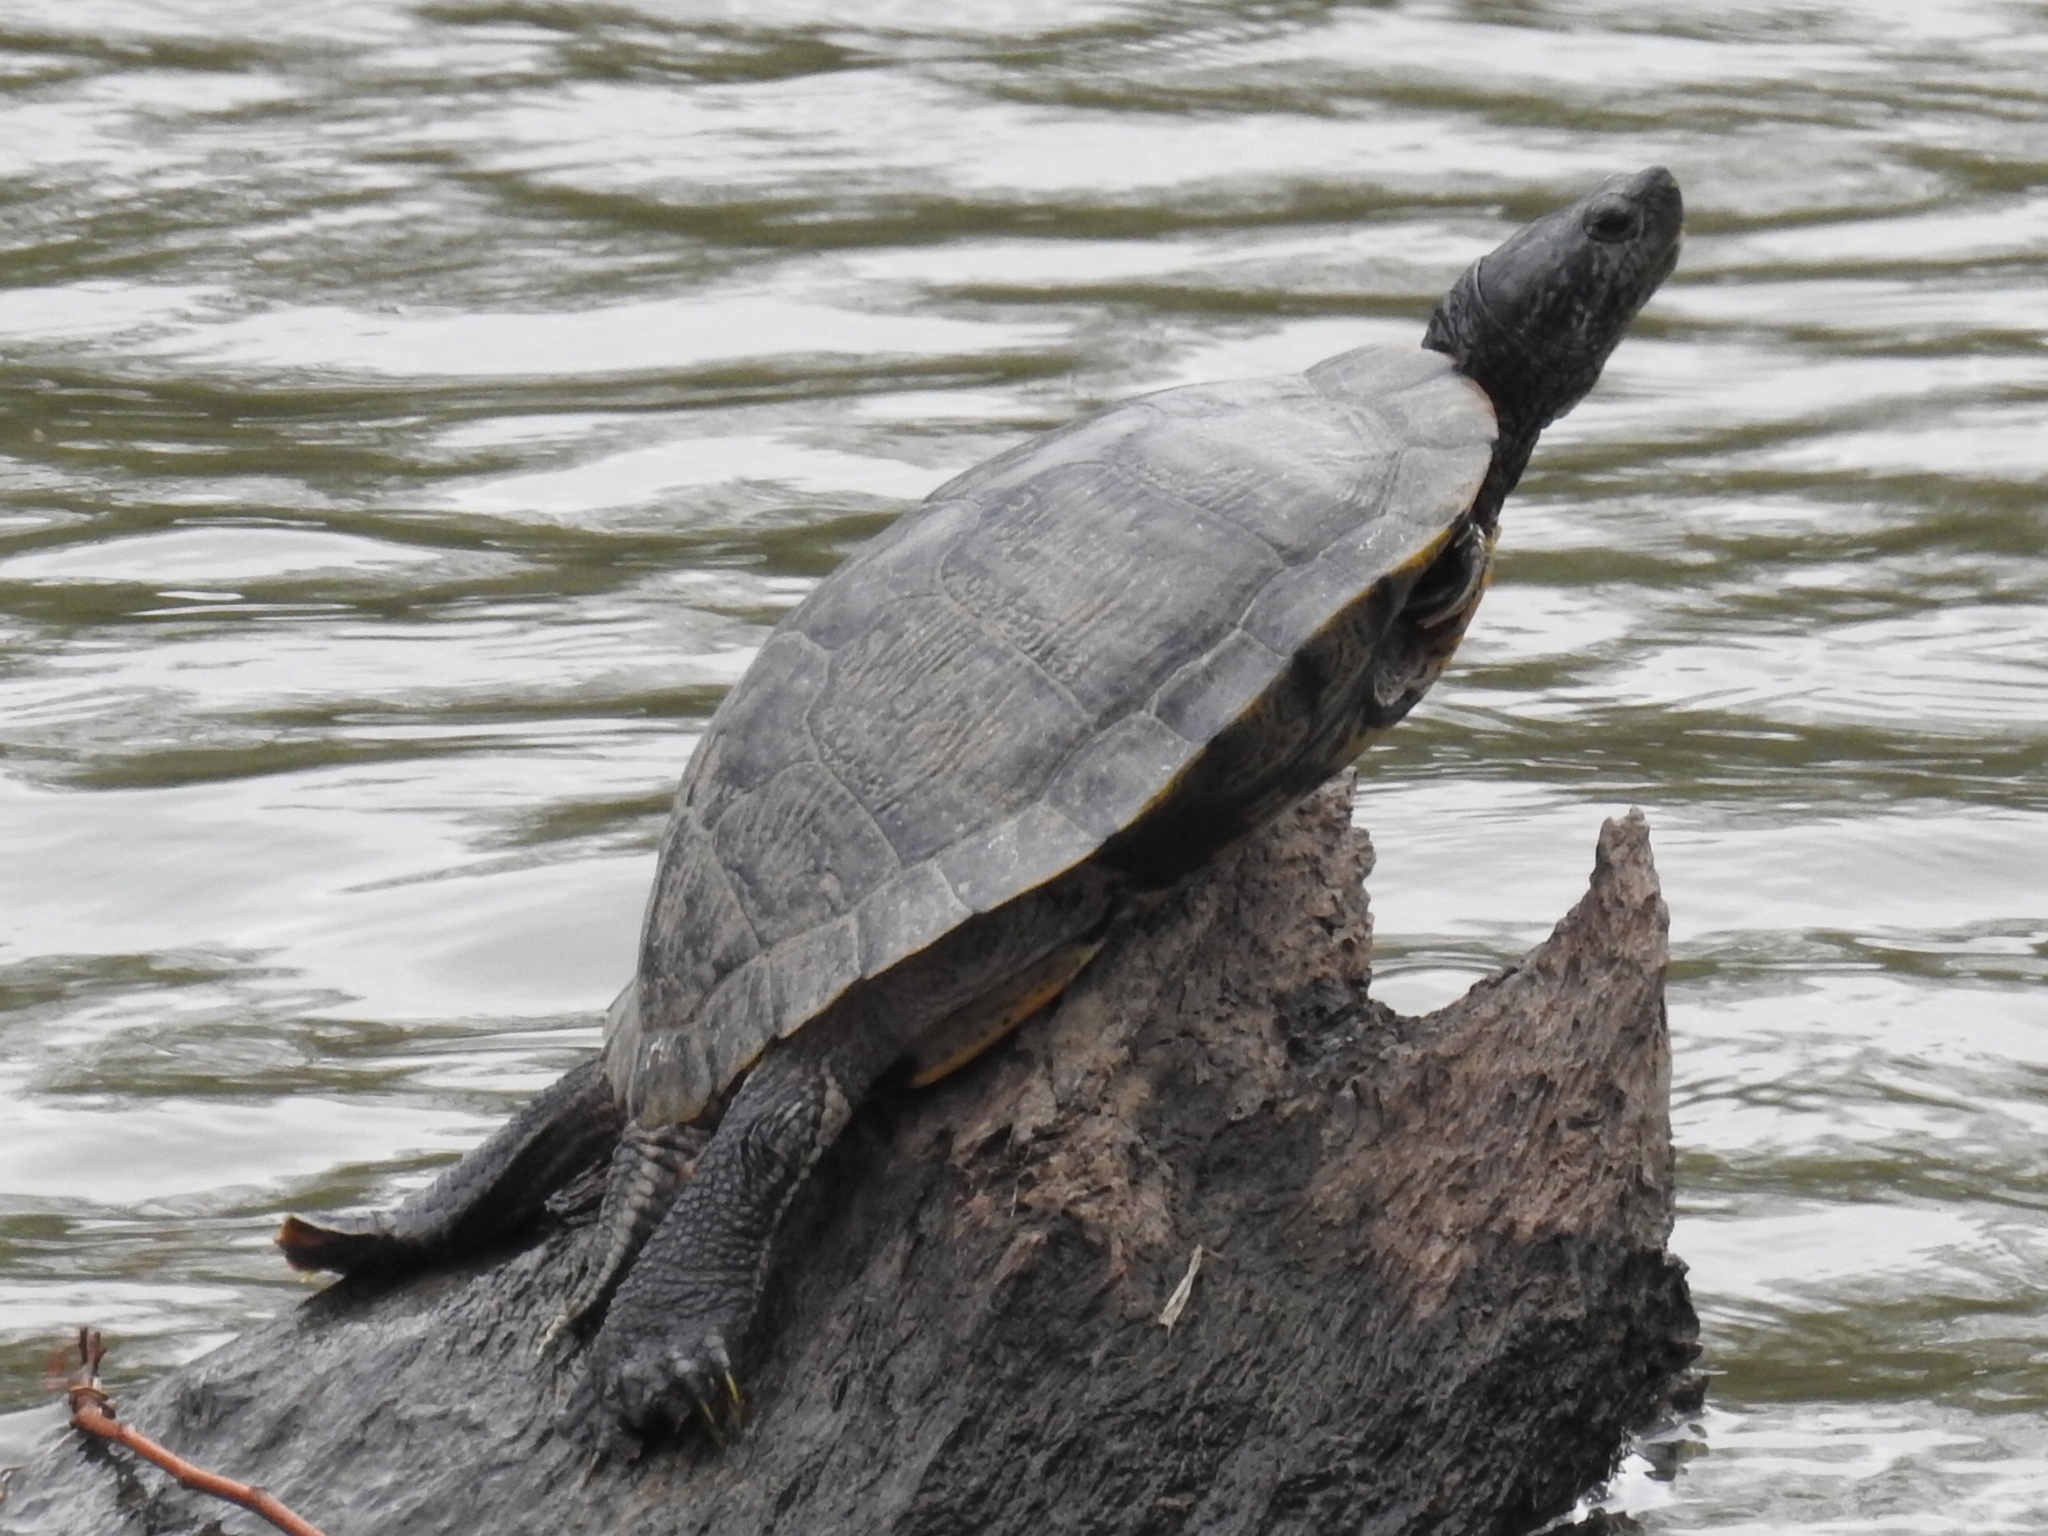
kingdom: Animalia
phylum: Chordata
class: Testudines
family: Emydidae
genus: Trachemys
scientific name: Trachemys scripta
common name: Slider
